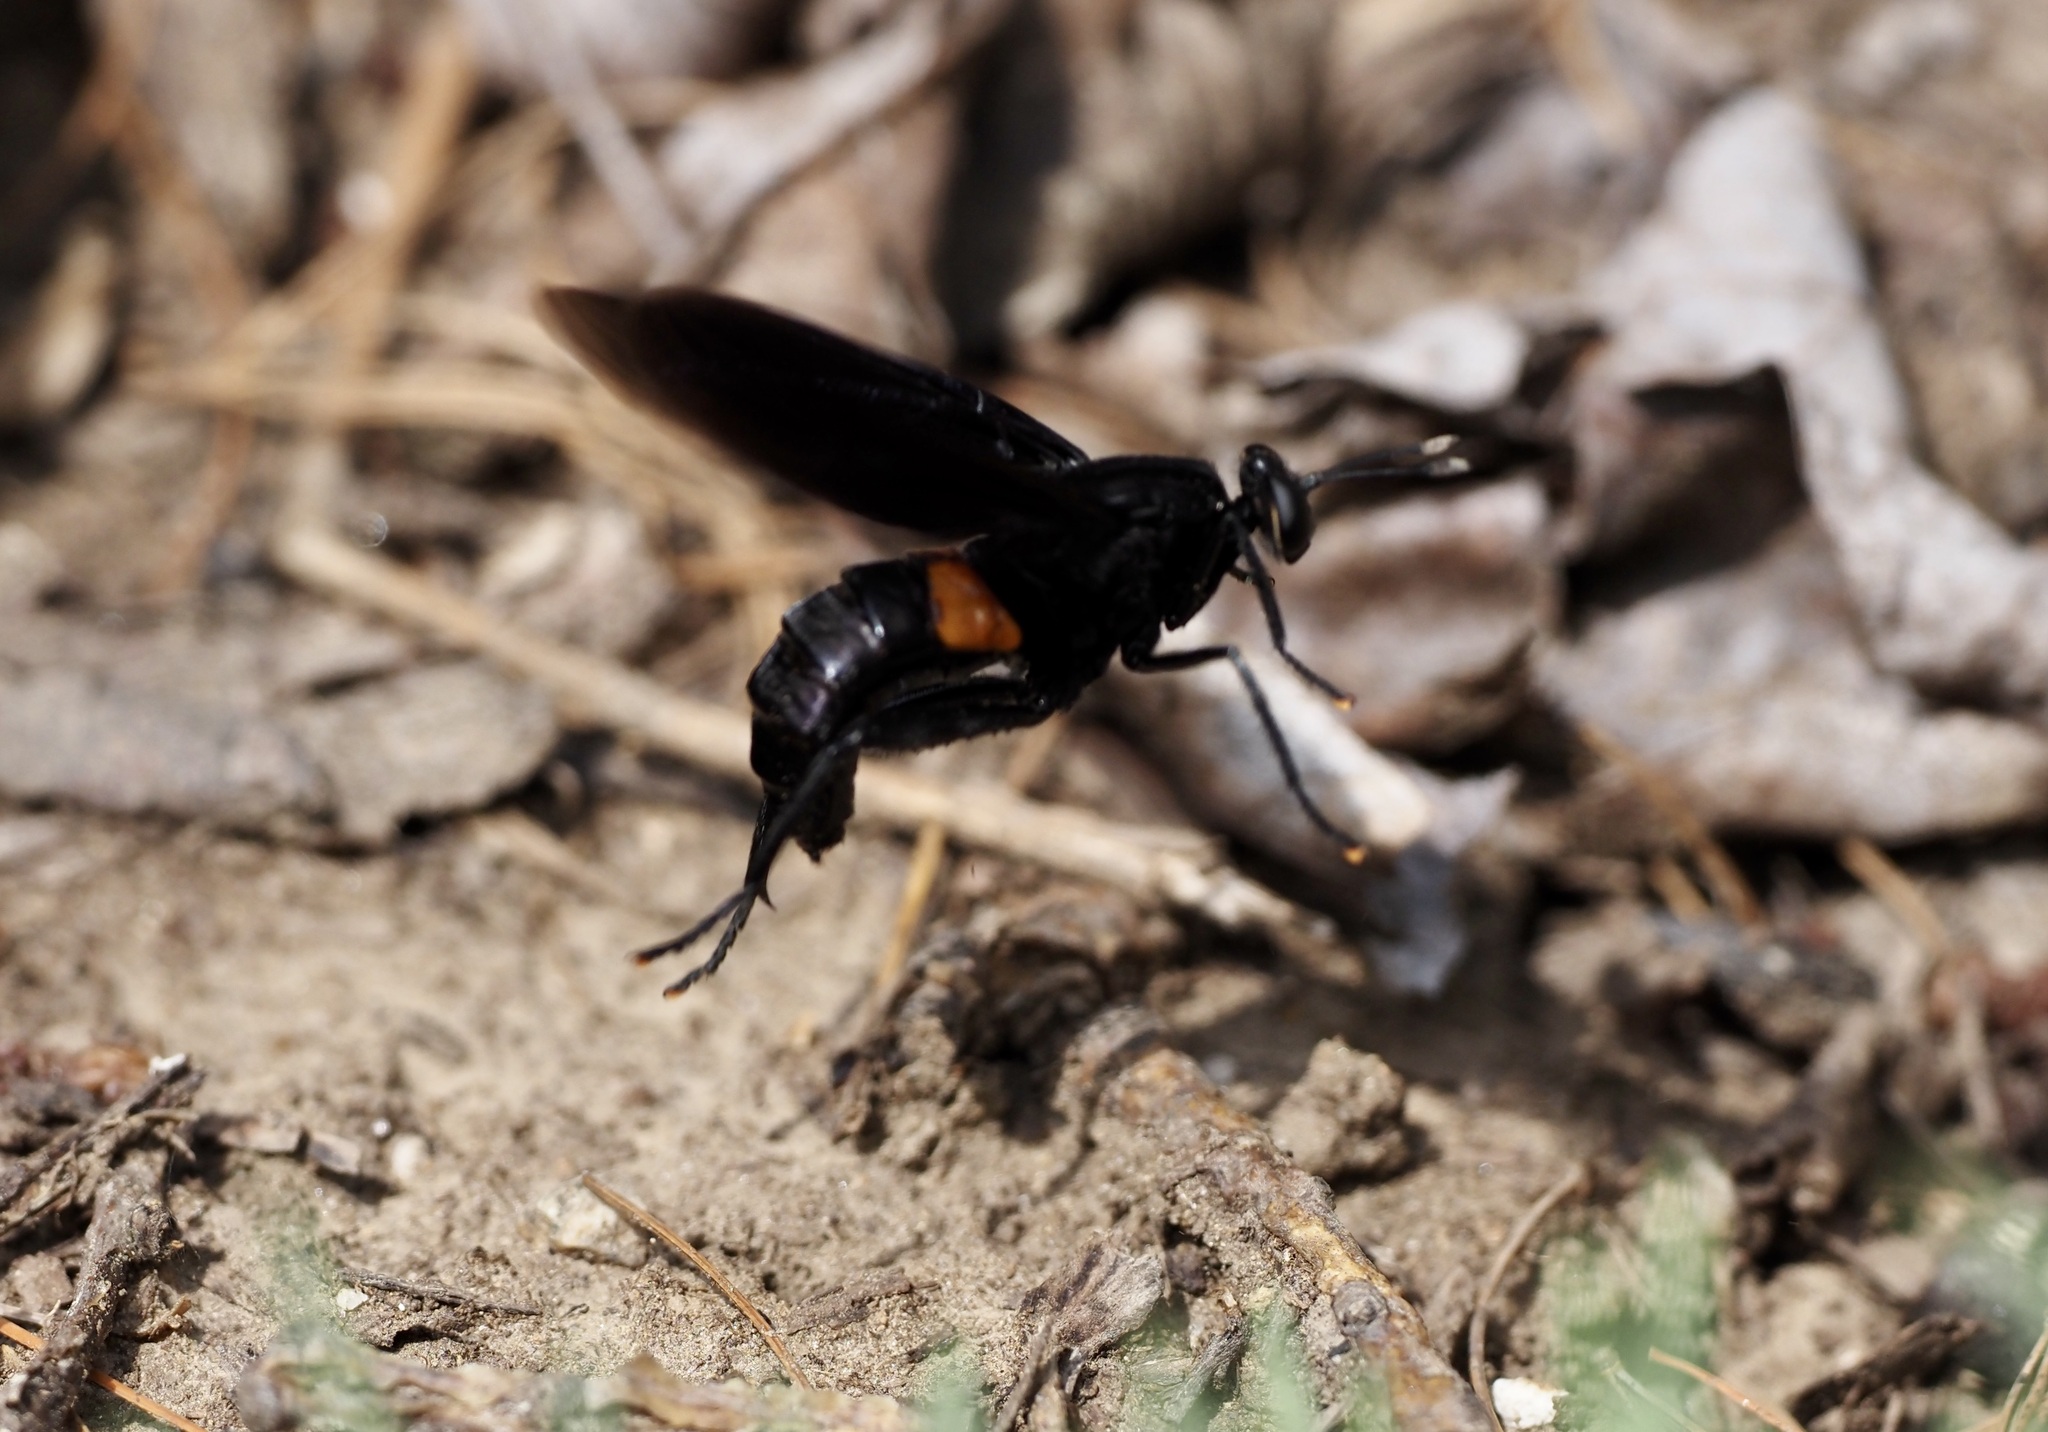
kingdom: Animalia
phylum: Arthropoda
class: Insecta
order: Diptera
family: Mydidae
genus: Mydas
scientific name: Mydas clavatus
